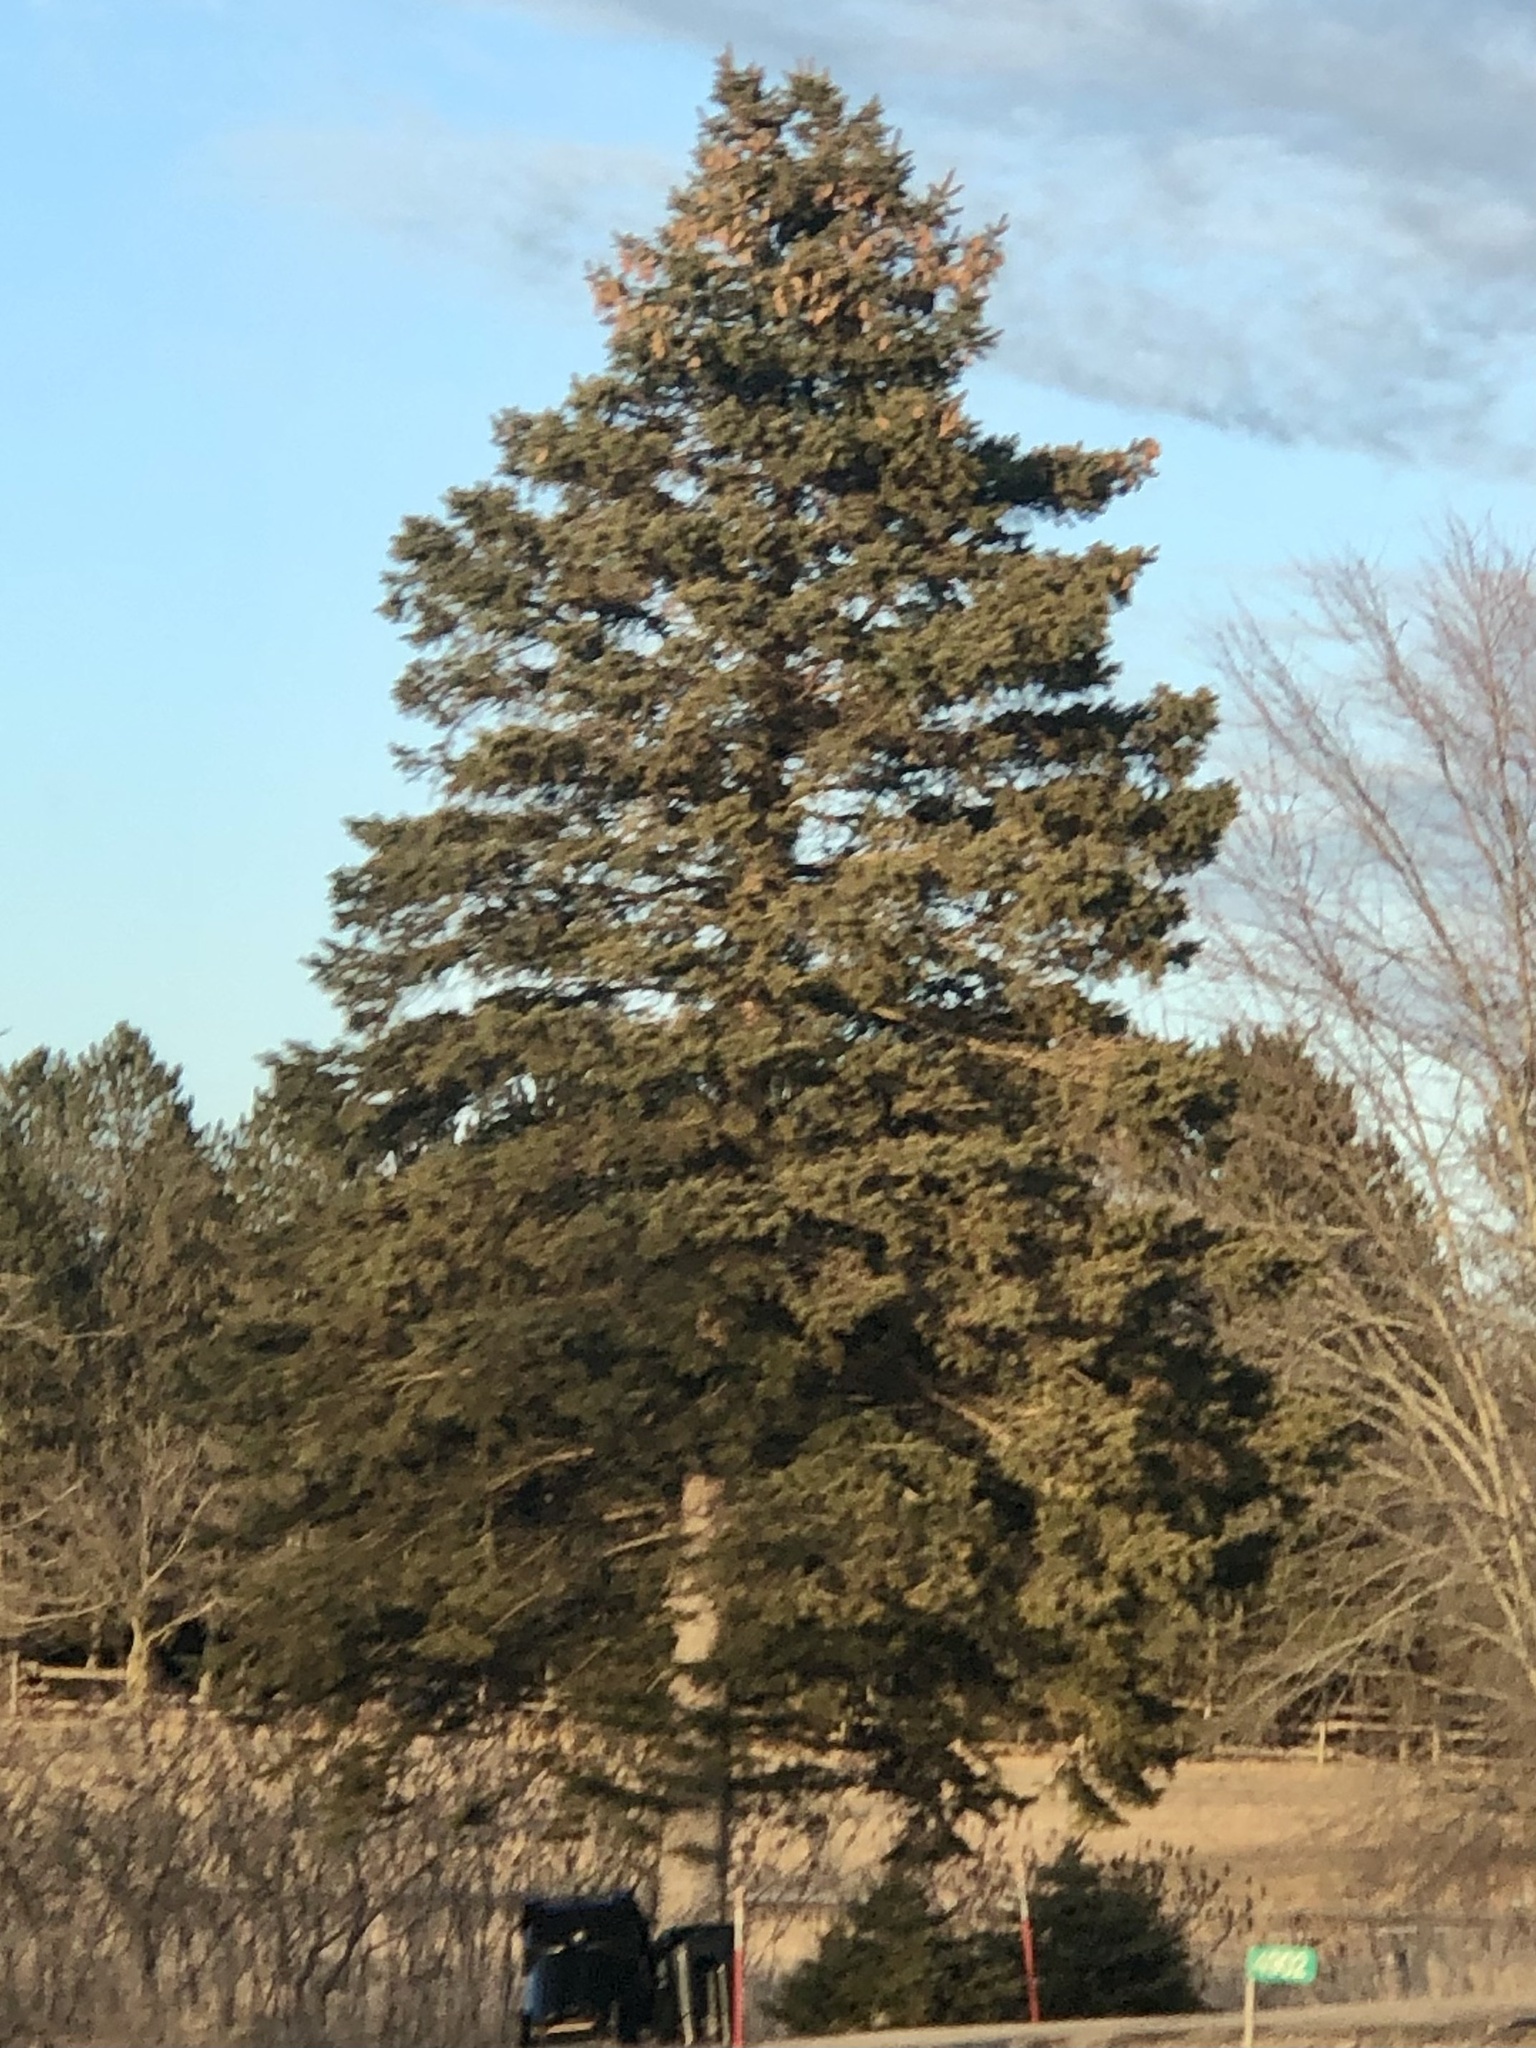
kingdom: Plantae
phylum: Tracheophyta
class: Pinopsida
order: Pinales
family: Pinaceae
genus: Picea
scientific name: Picea glauca
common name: White spruce
